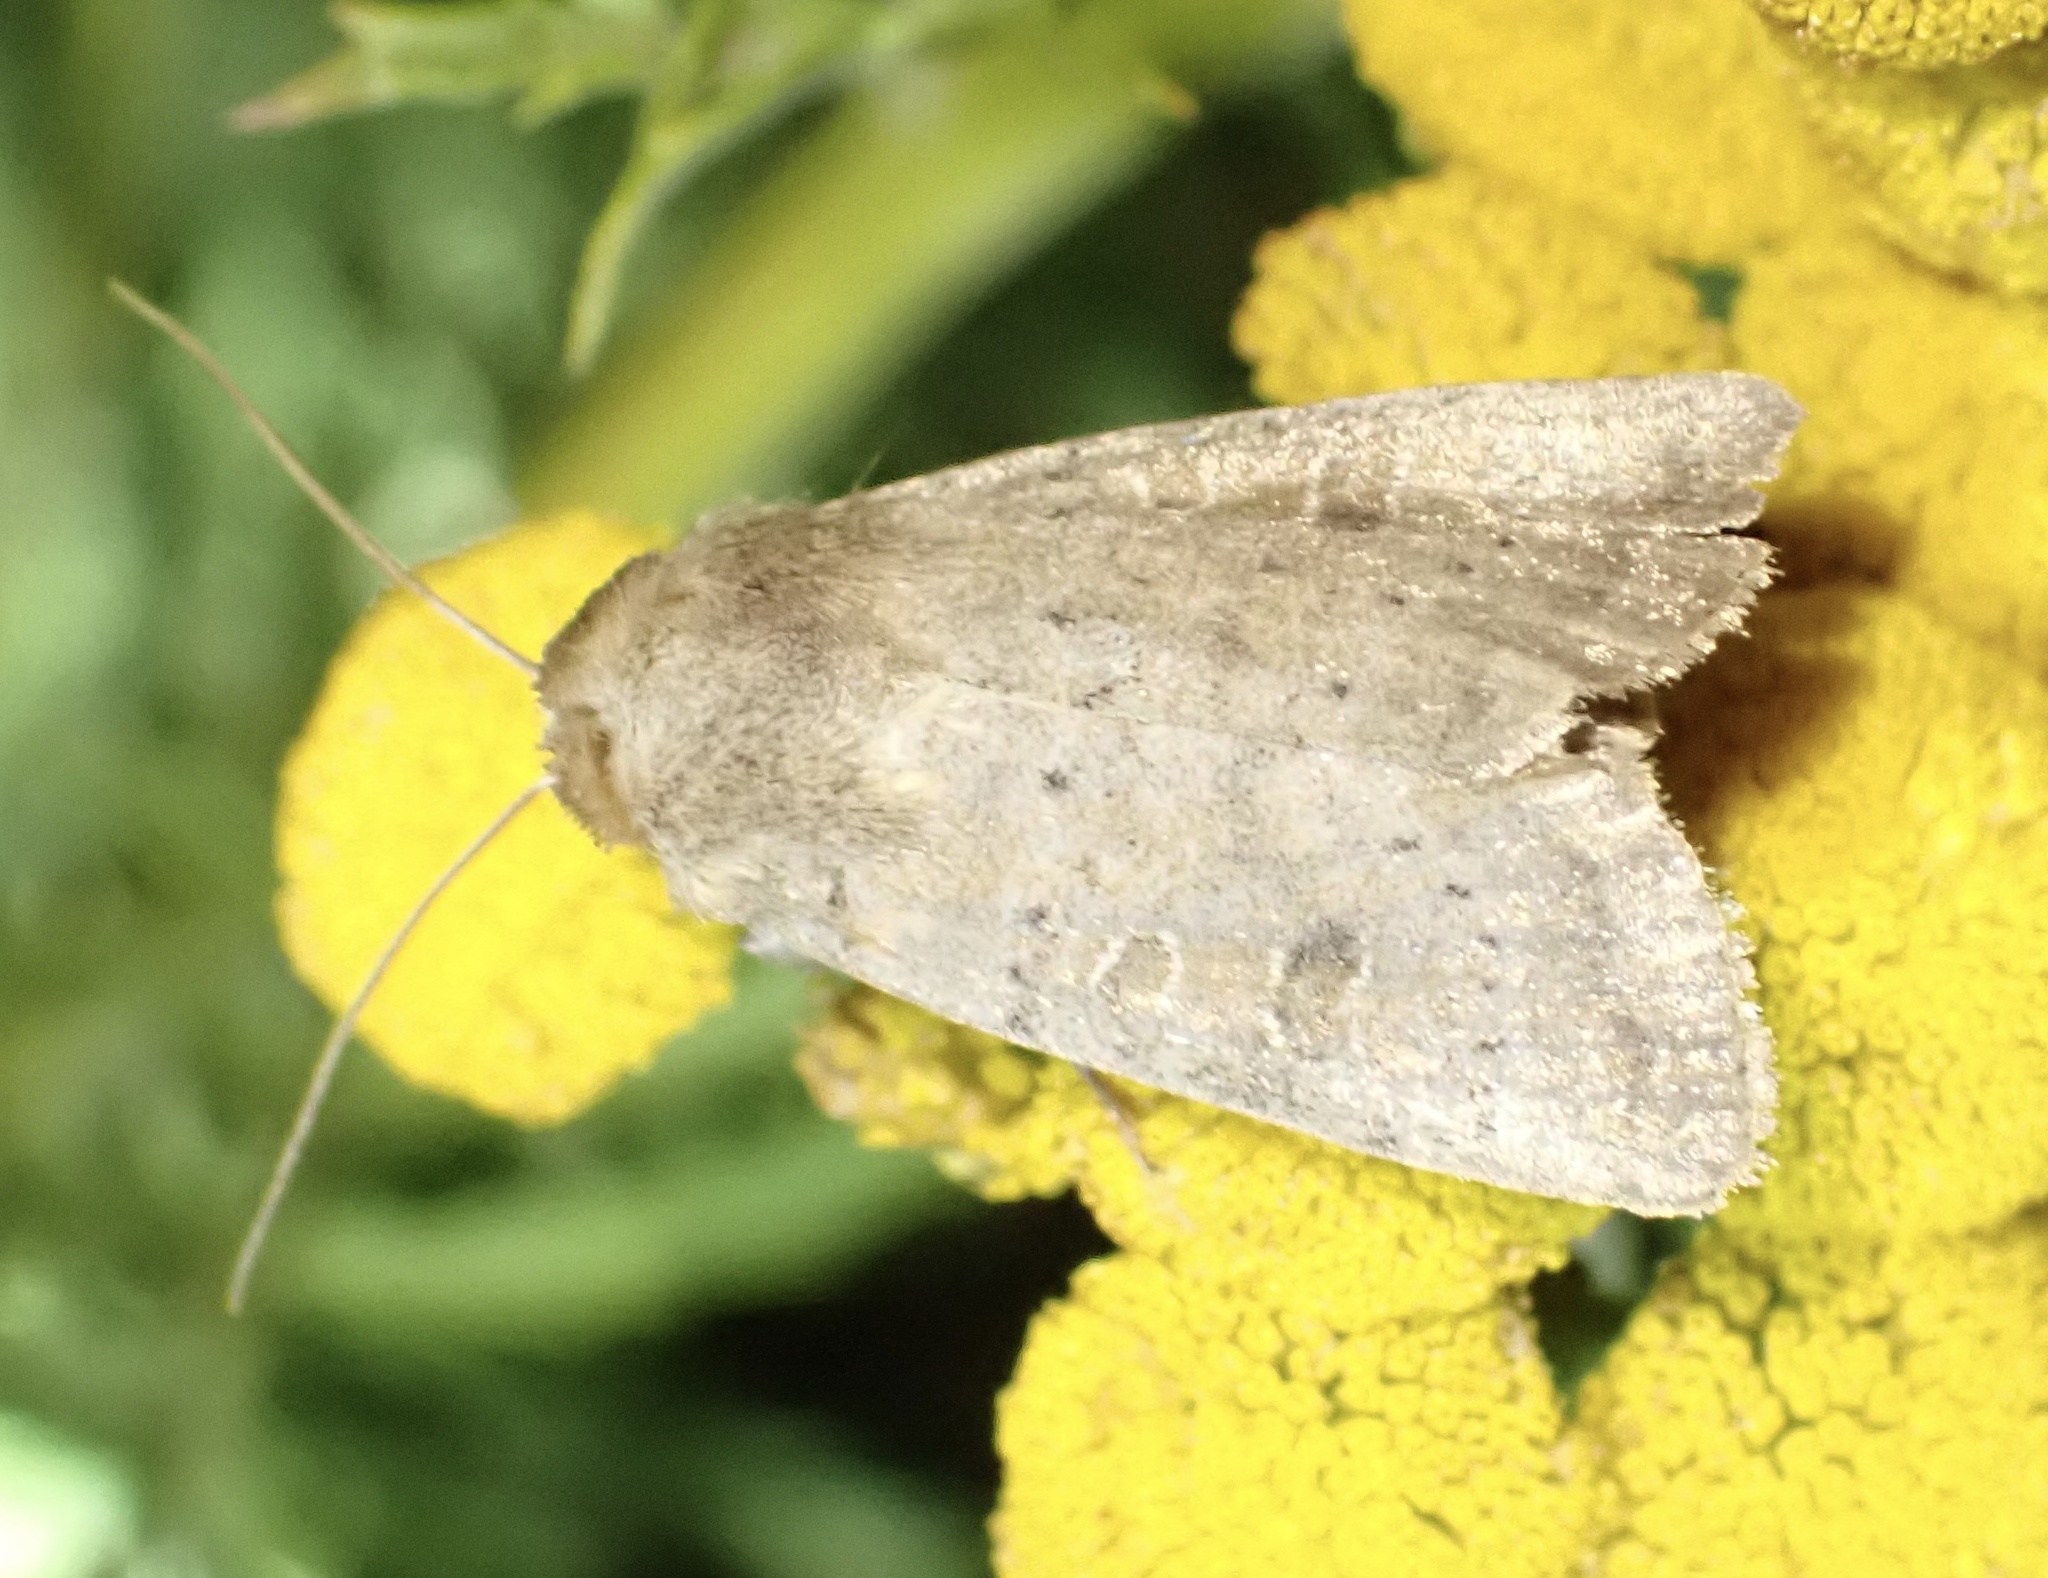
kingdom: Animalia
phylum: Arthropoda
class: Insecta
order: Lepidoptera
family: Noctuidae
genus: Hoplodrina
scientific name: Hoplodrina ambigua
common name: Vine's rustic
